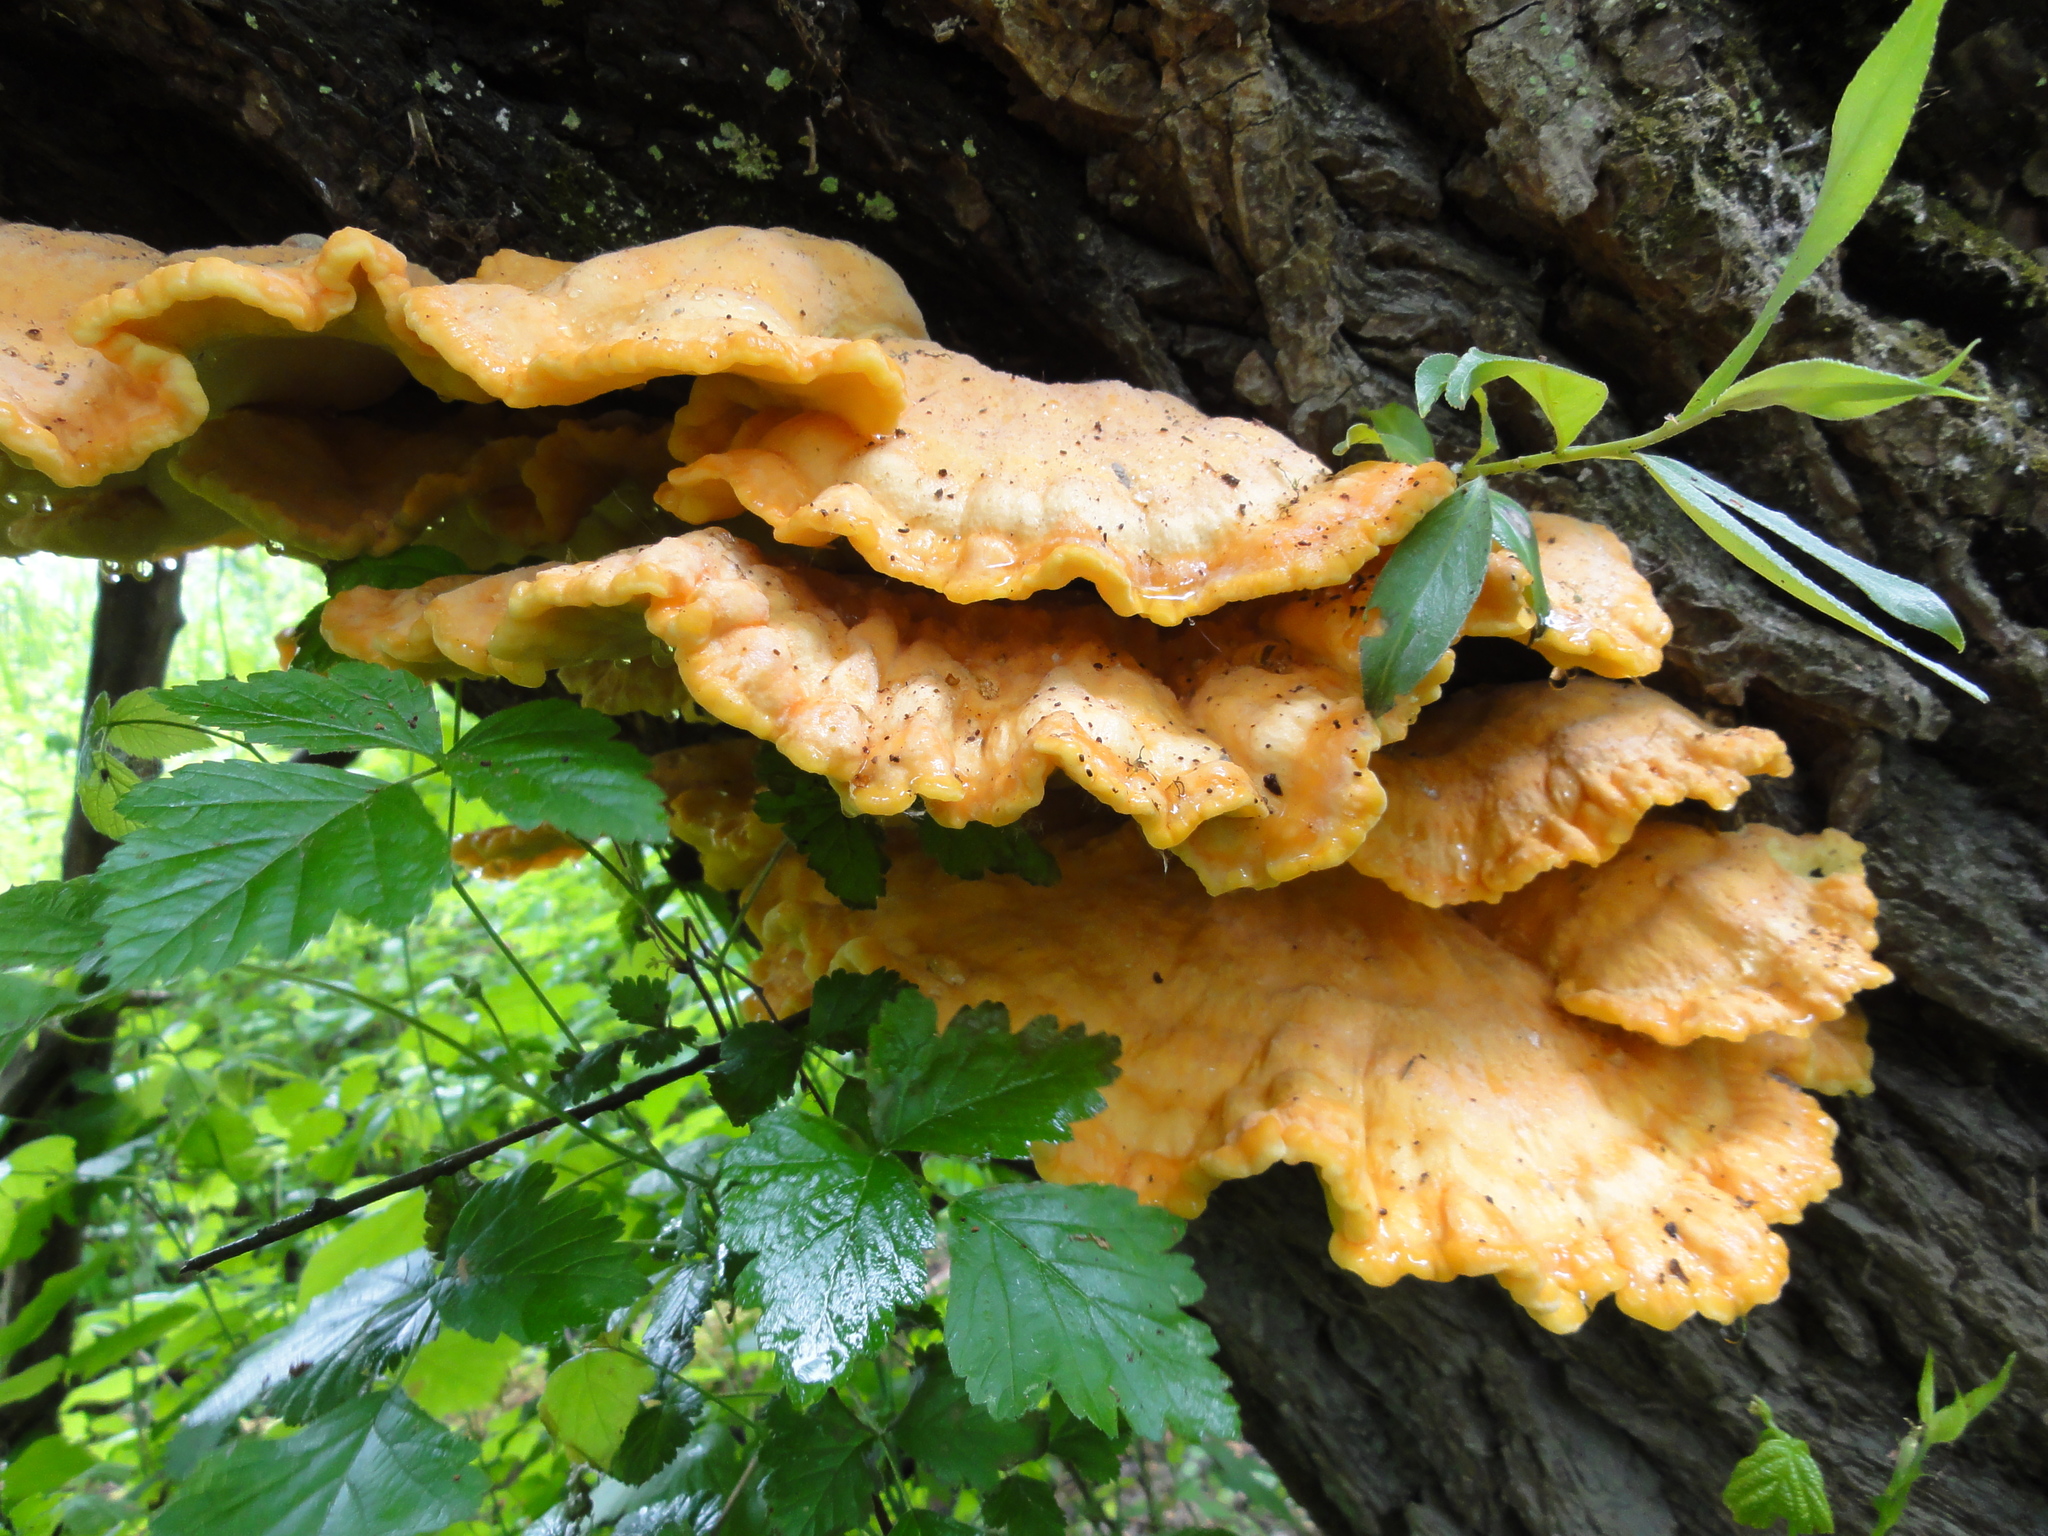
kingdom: Fungi
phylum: Basidiomycota
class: Agaricomycetes
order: Polyporales
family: Laetiporaceae
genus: Laetiporus
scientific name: Laetiporus sulphureus
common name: Chicken of the woods
